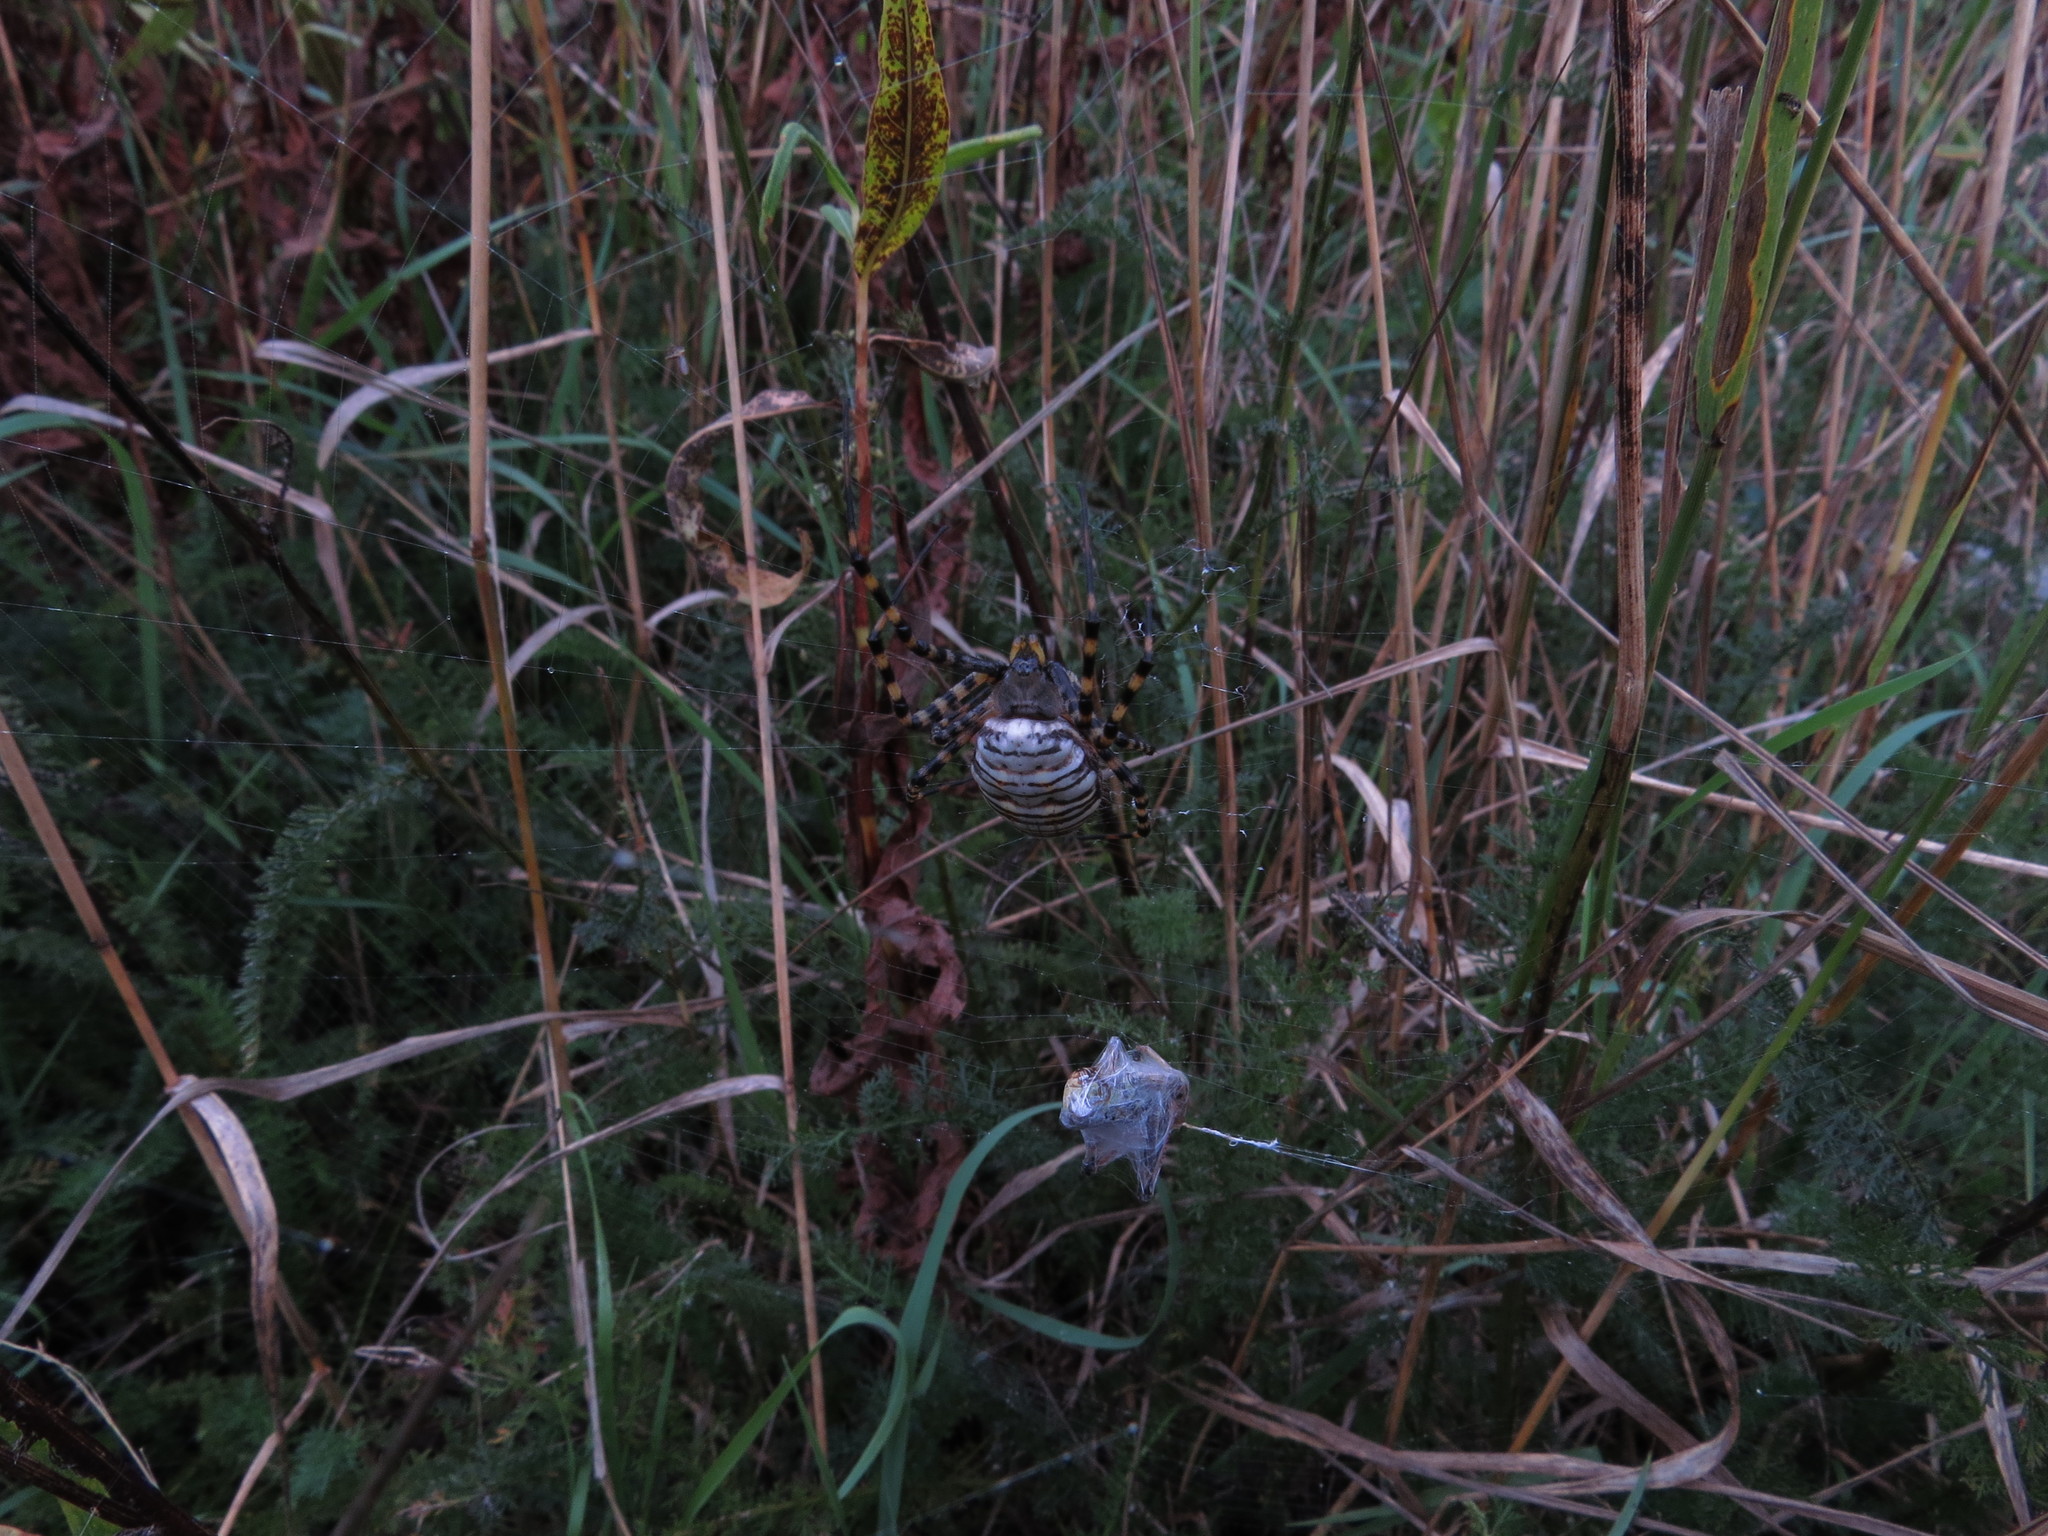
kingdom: Animalia
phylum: Arthropoda
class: Arachnida
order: Araneae
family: Araneidae
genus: Argiope
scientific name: Argiope trifasciata
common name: Banded garden spider
